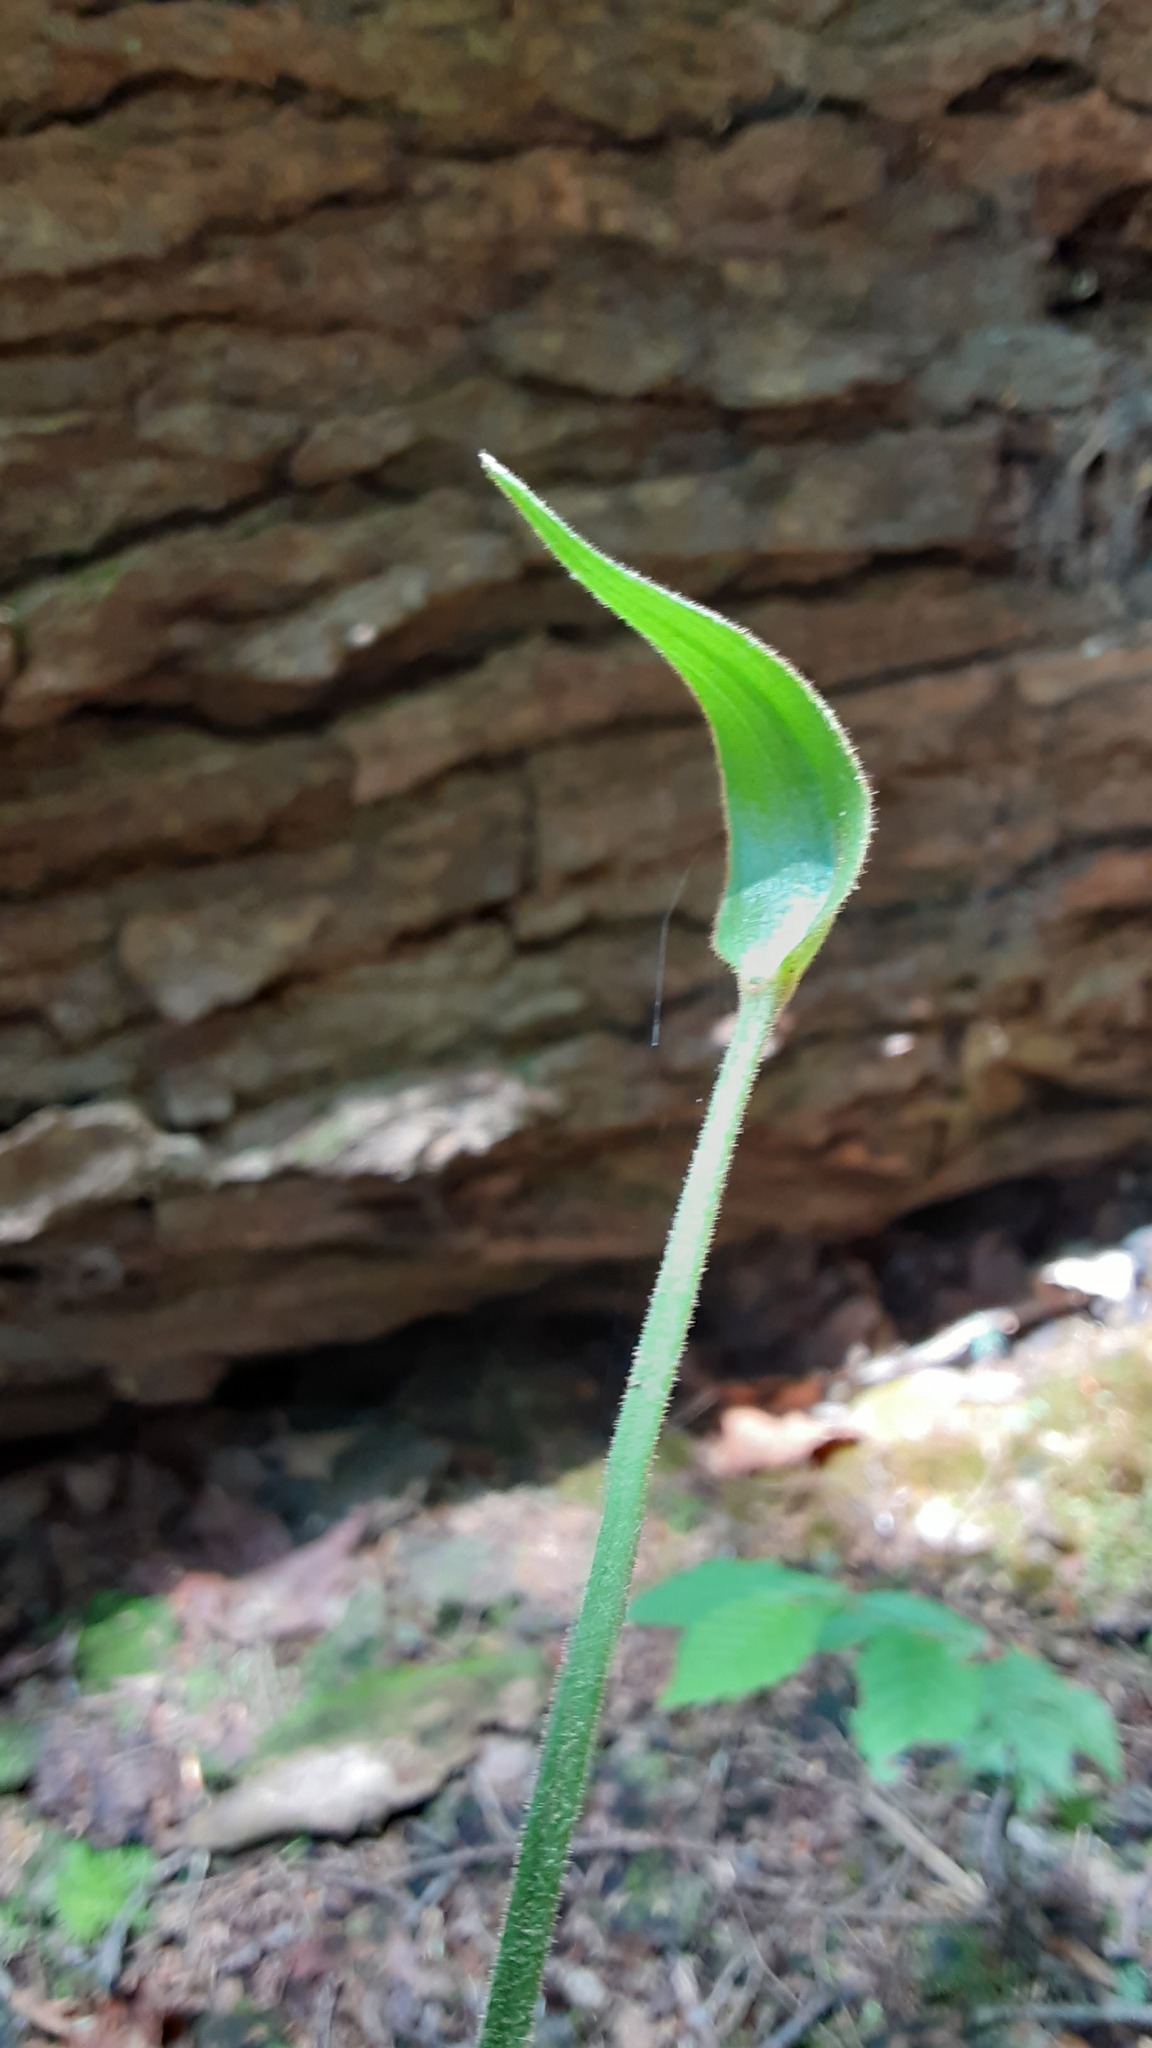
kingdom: Plantae
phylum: Tracheophyta
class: Liliopsida
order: Asparagales
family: Orchidaceae
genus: Cypripedium
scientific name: Cypripedium acaule
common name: Pink lady's-slipper
